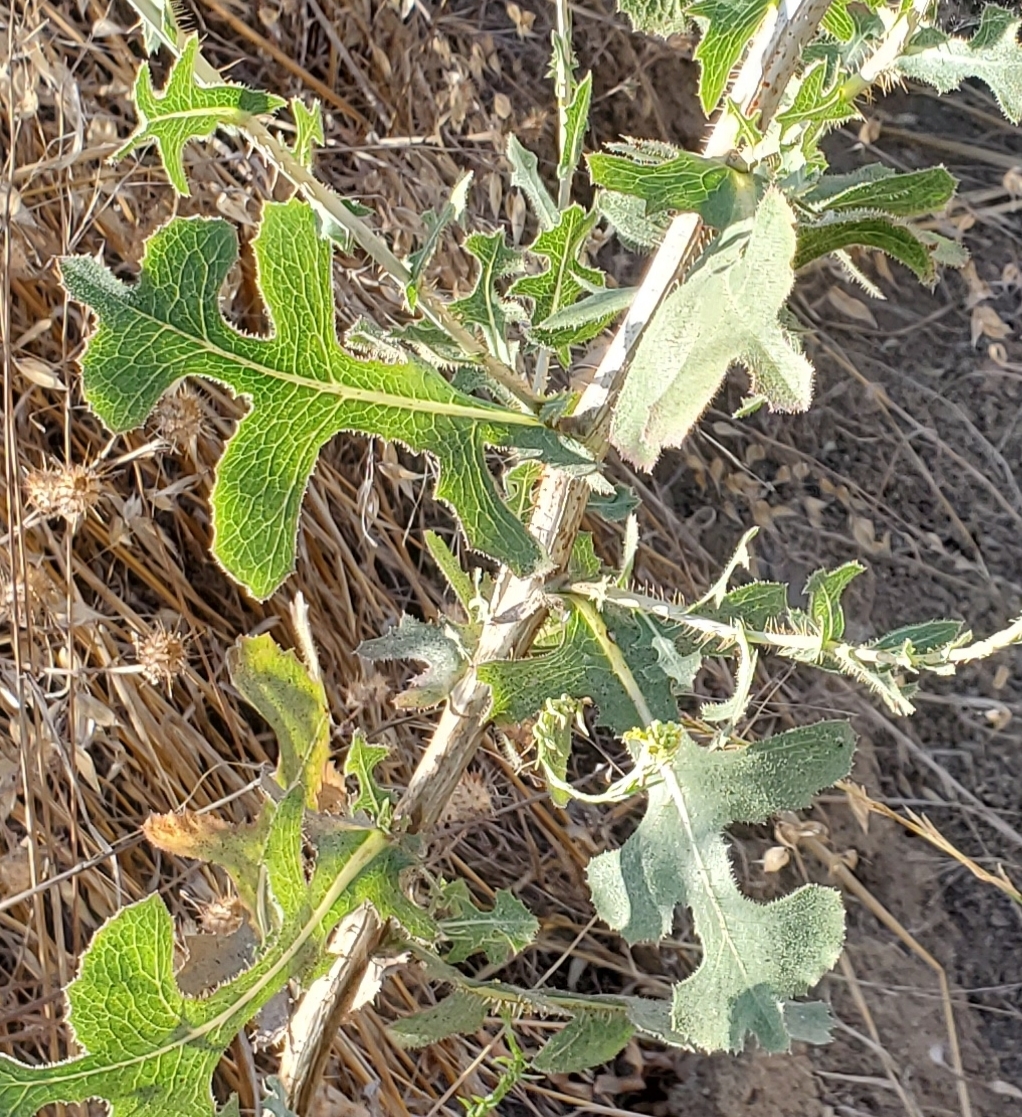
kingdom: Plantae
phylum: Tracheophyta
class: Magnoliopsida
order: Asterales
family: Asteraceae
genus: Lactuca
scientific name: Lactuca serriola
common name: Prickly lettuce
